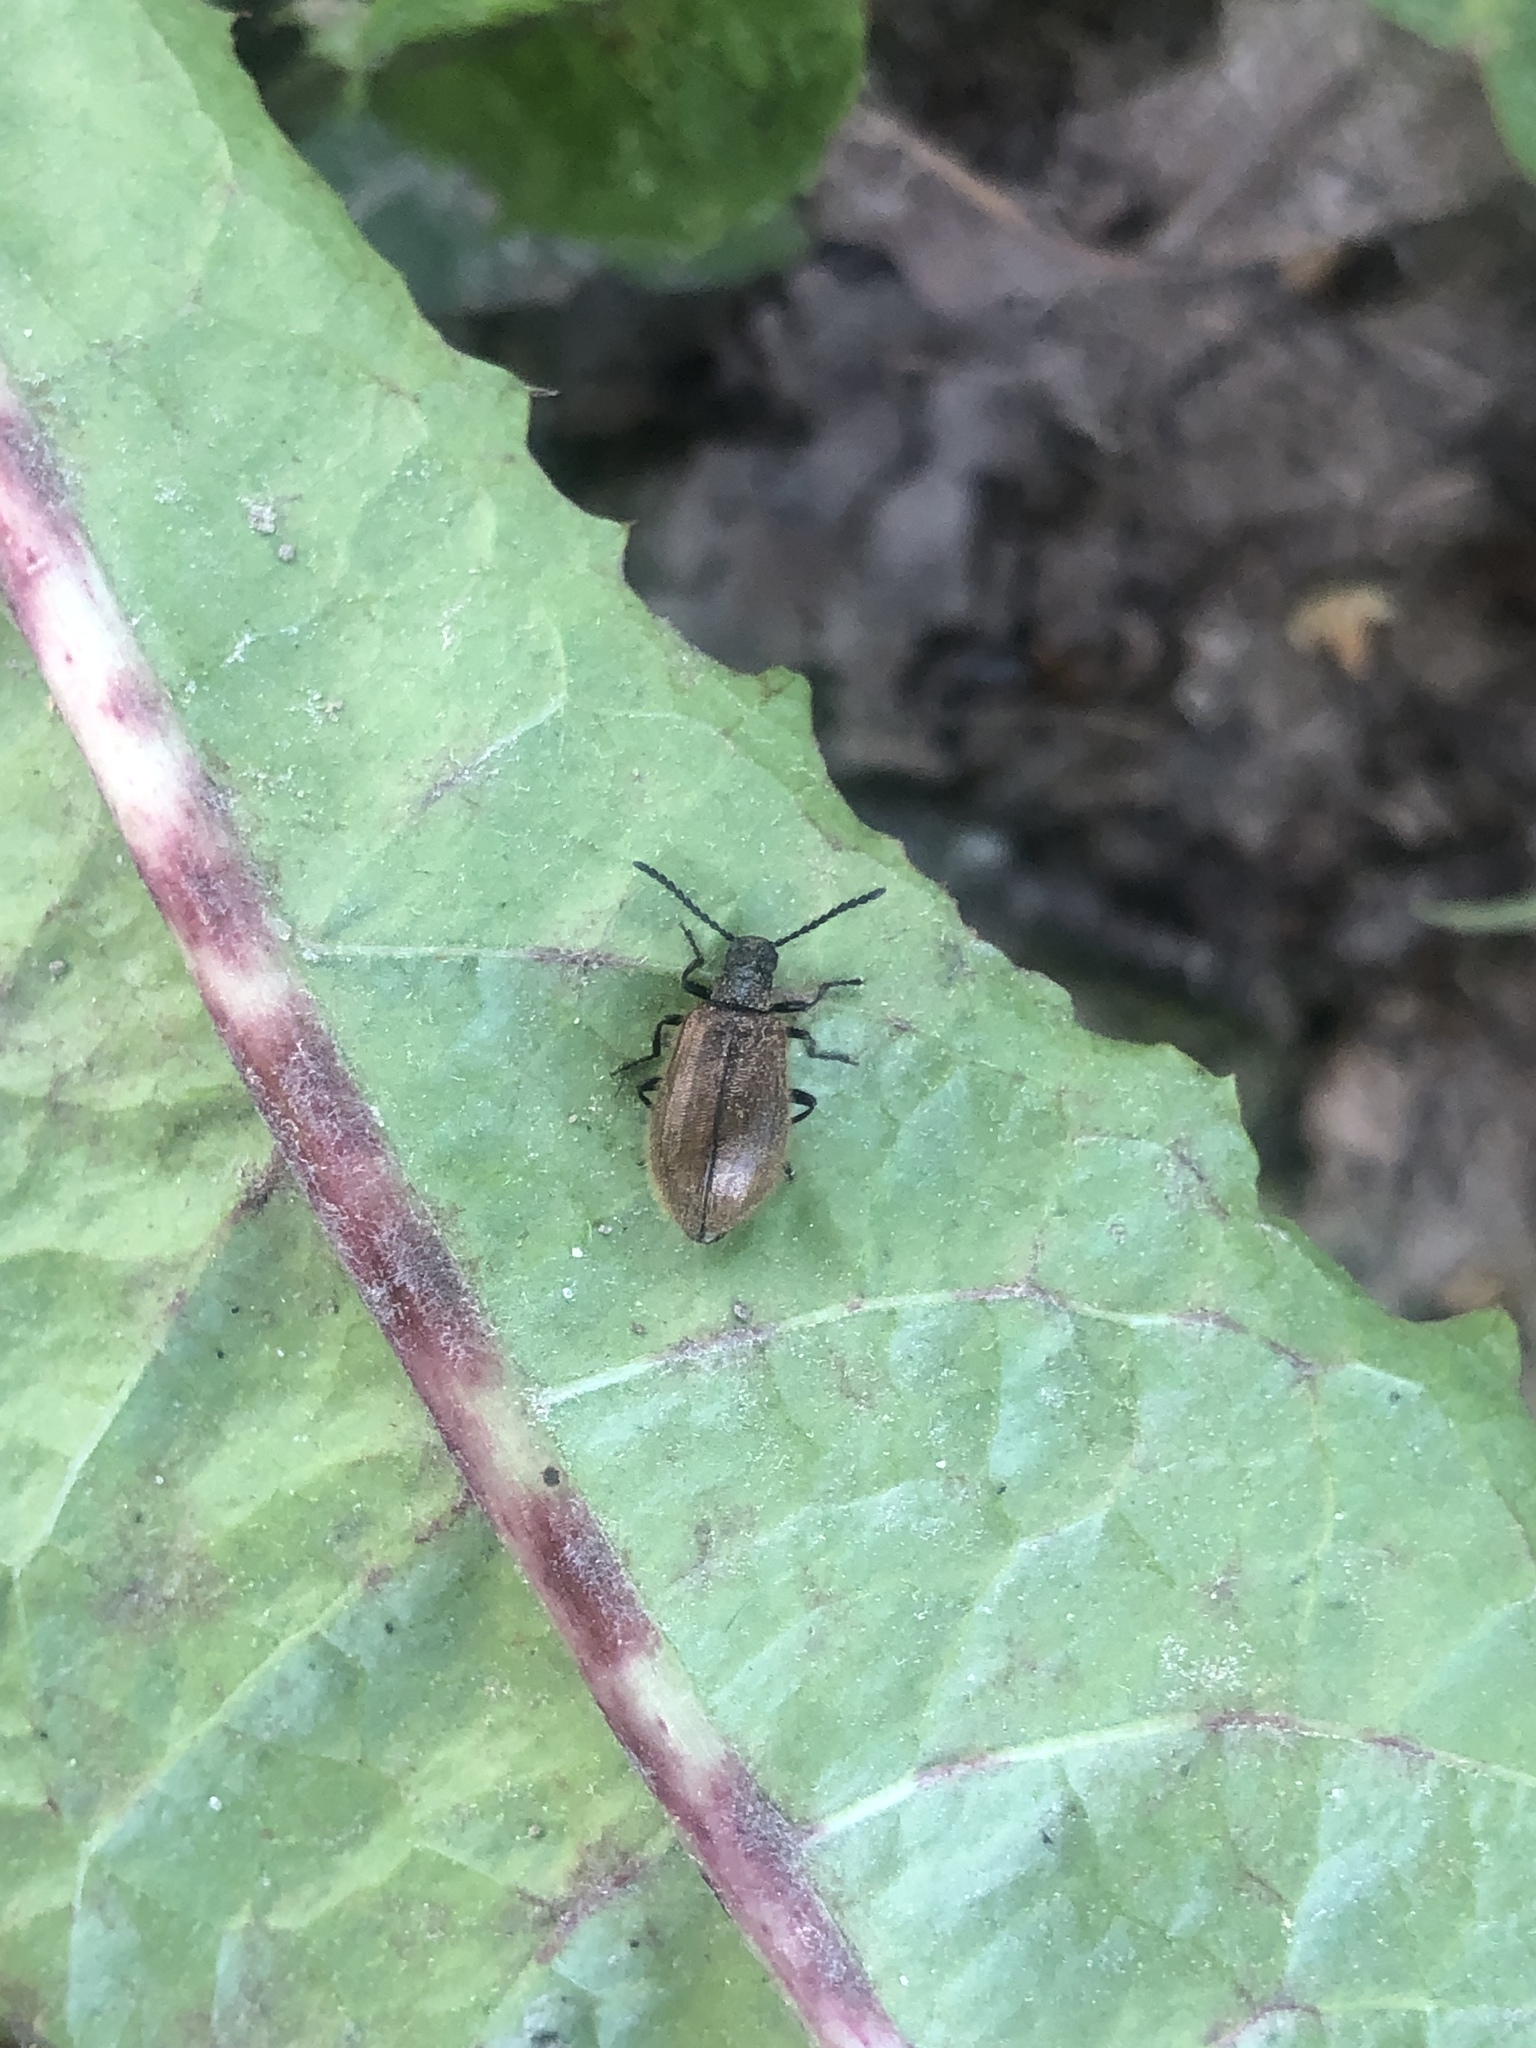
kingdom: Animalia
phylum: Arthropoda
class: Insecta
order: Coleoptera
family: Tenebrionidae
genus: Lagria
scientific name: Lagria hirta
